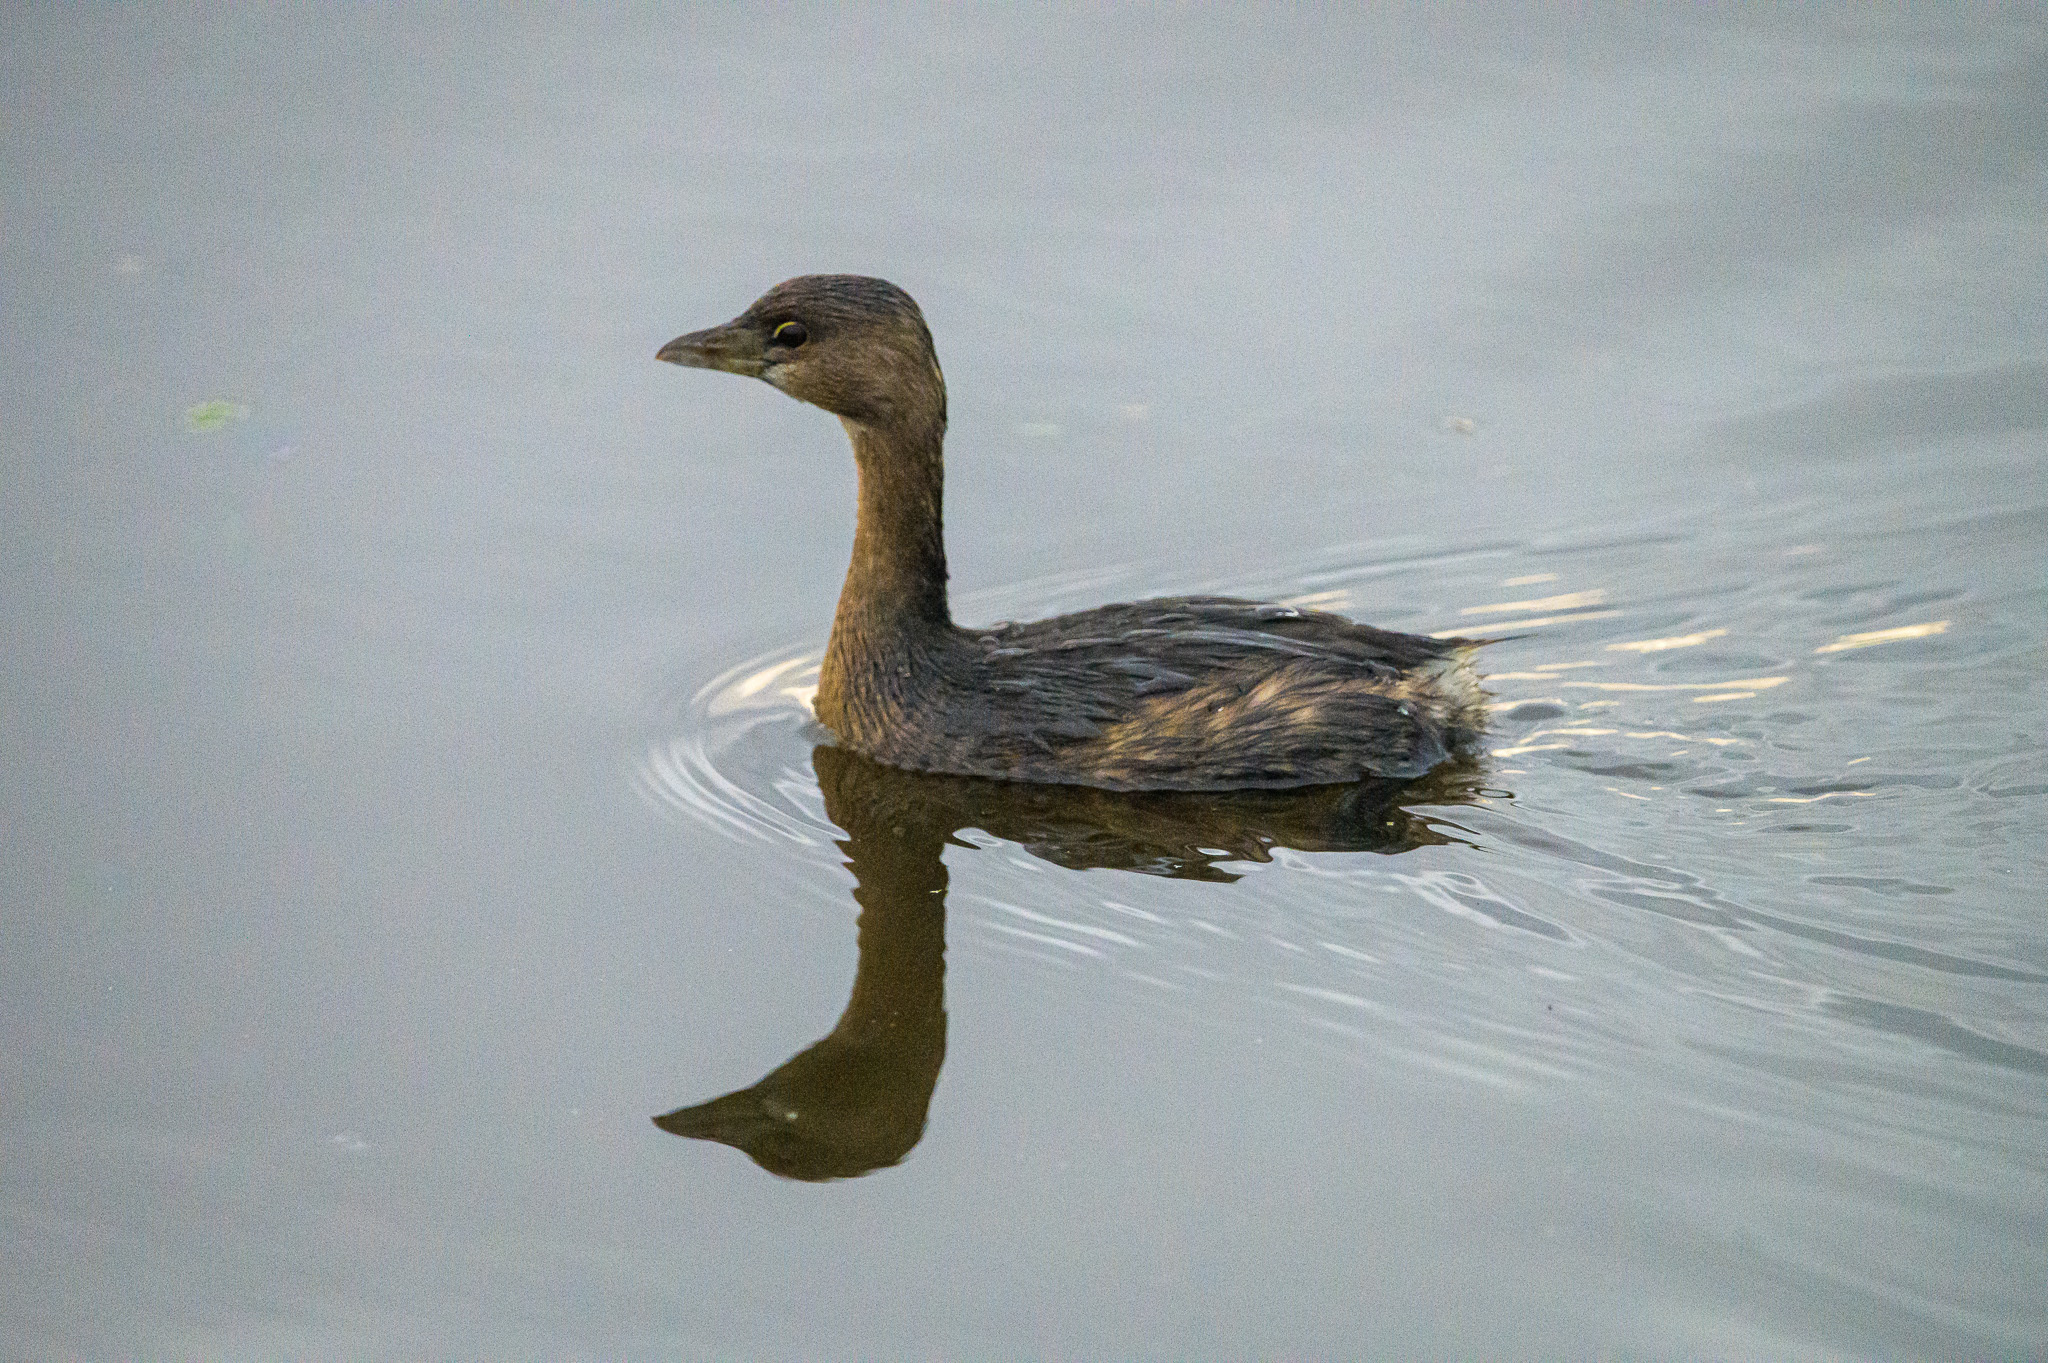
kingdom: Animalia
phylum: Chordata
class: Aves
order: Podicipediformes
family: Podicipedidae
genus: Podilymbus
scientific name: Podilymbus podiceps
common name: Pied-billed grebe
